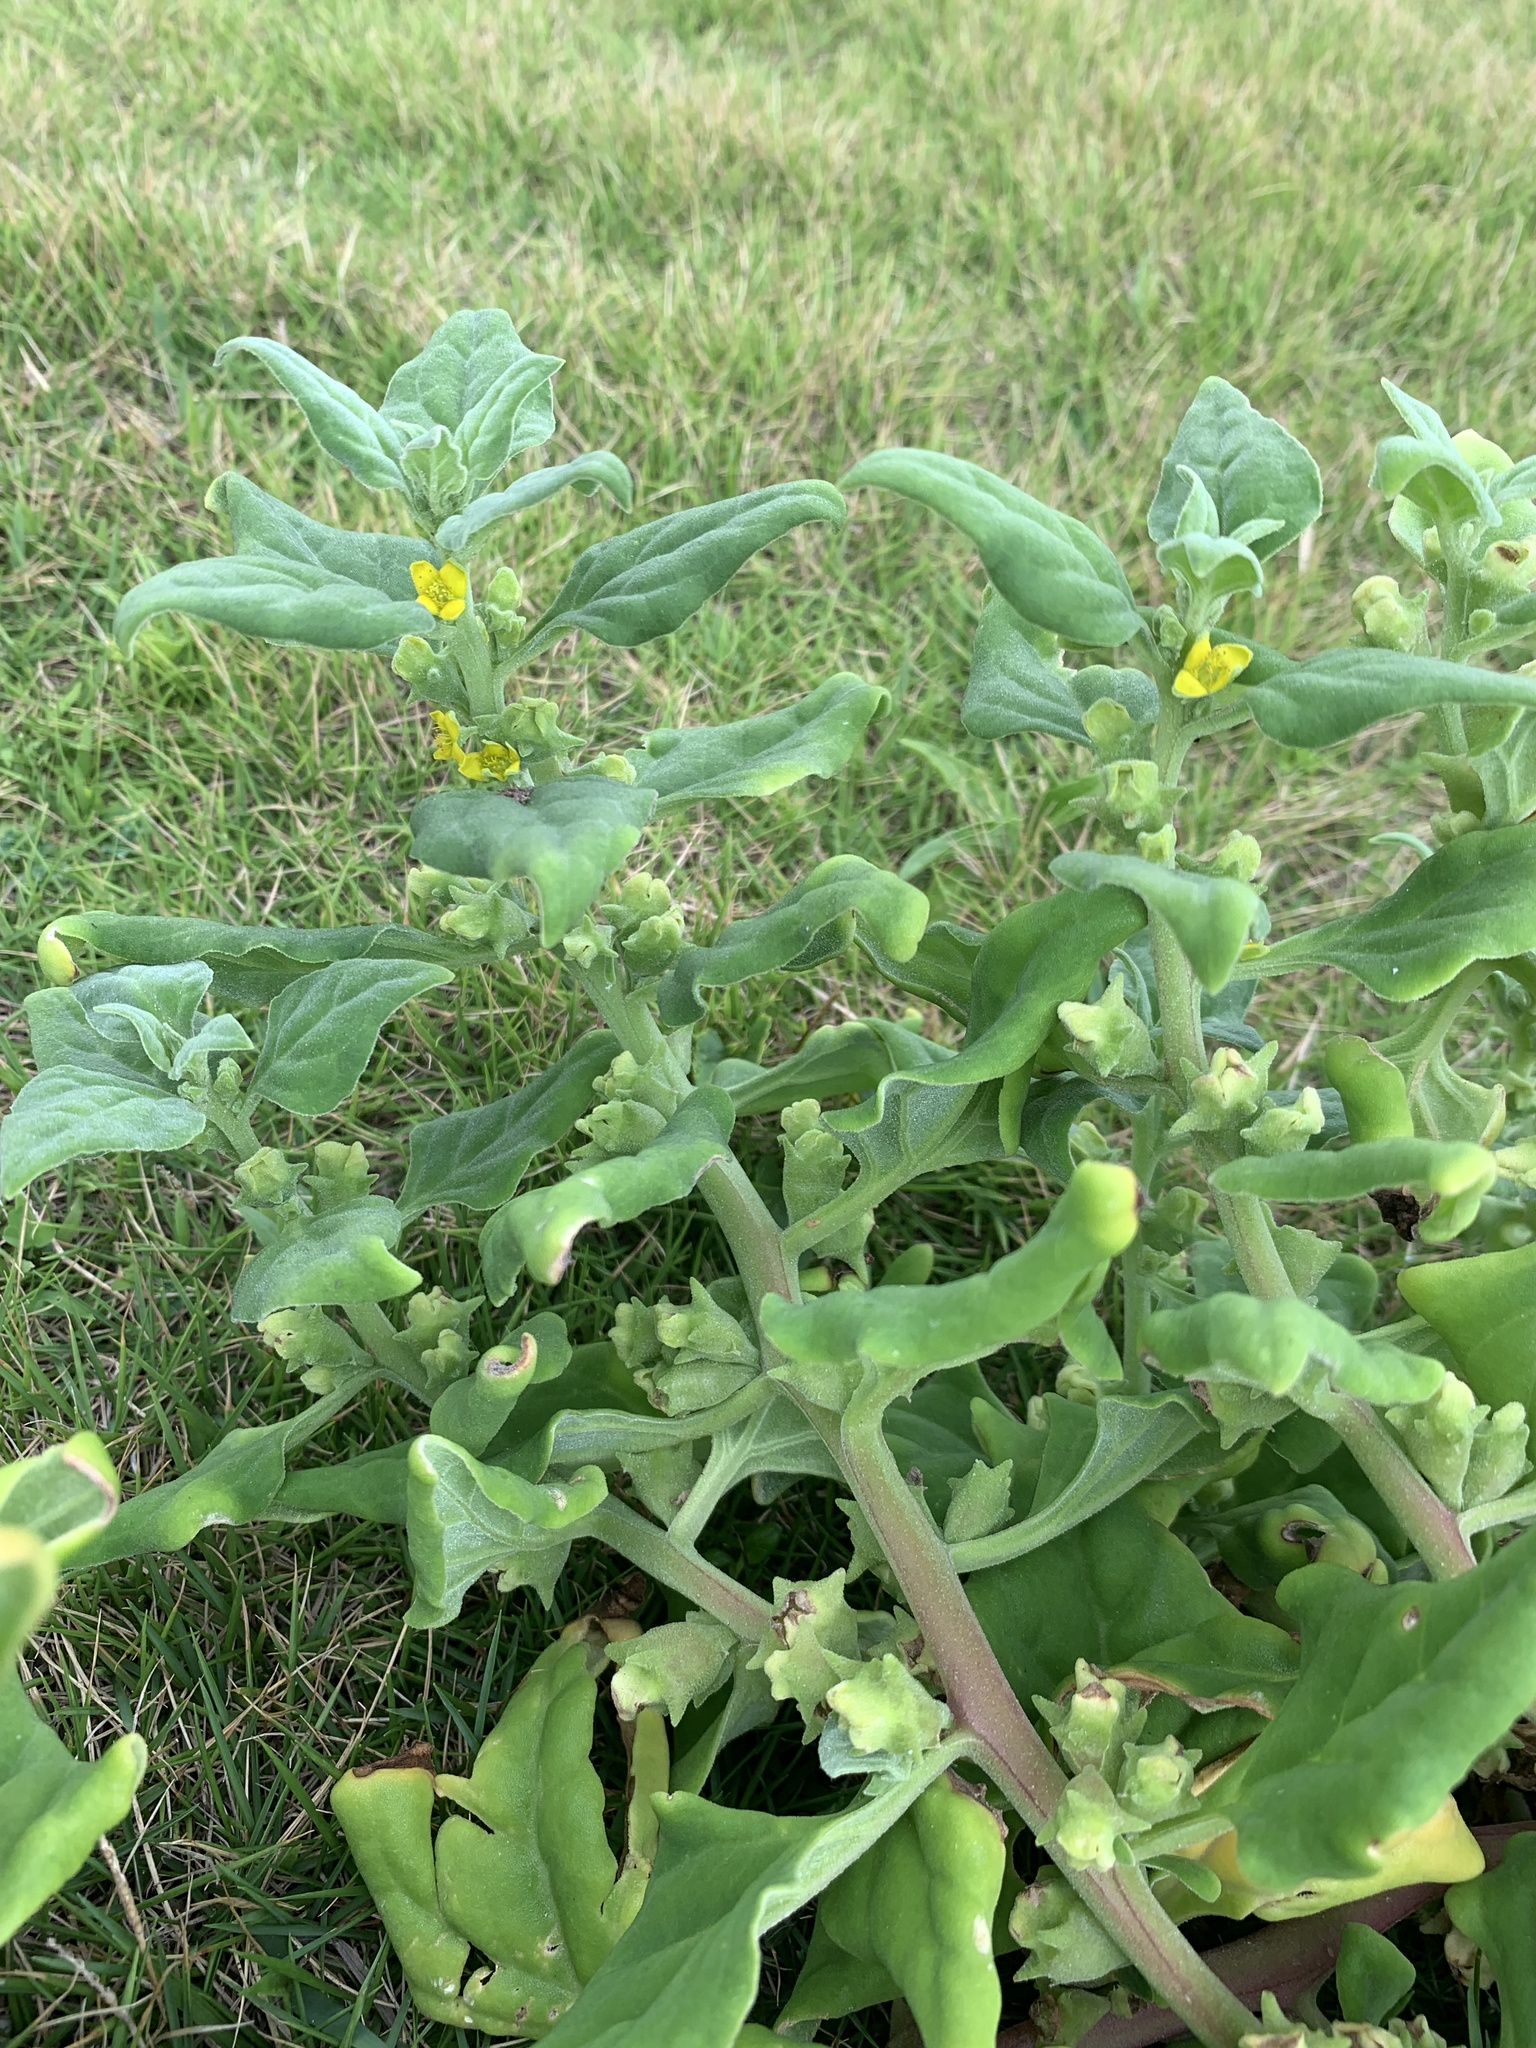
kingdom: Plantae
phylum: Tracheophyta
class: Magnoliopsida
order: Caryophyllales
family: Aizoaceae
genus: Tetragonia
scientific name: Tetragonia tetragonoides
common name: New zealand-spinach
